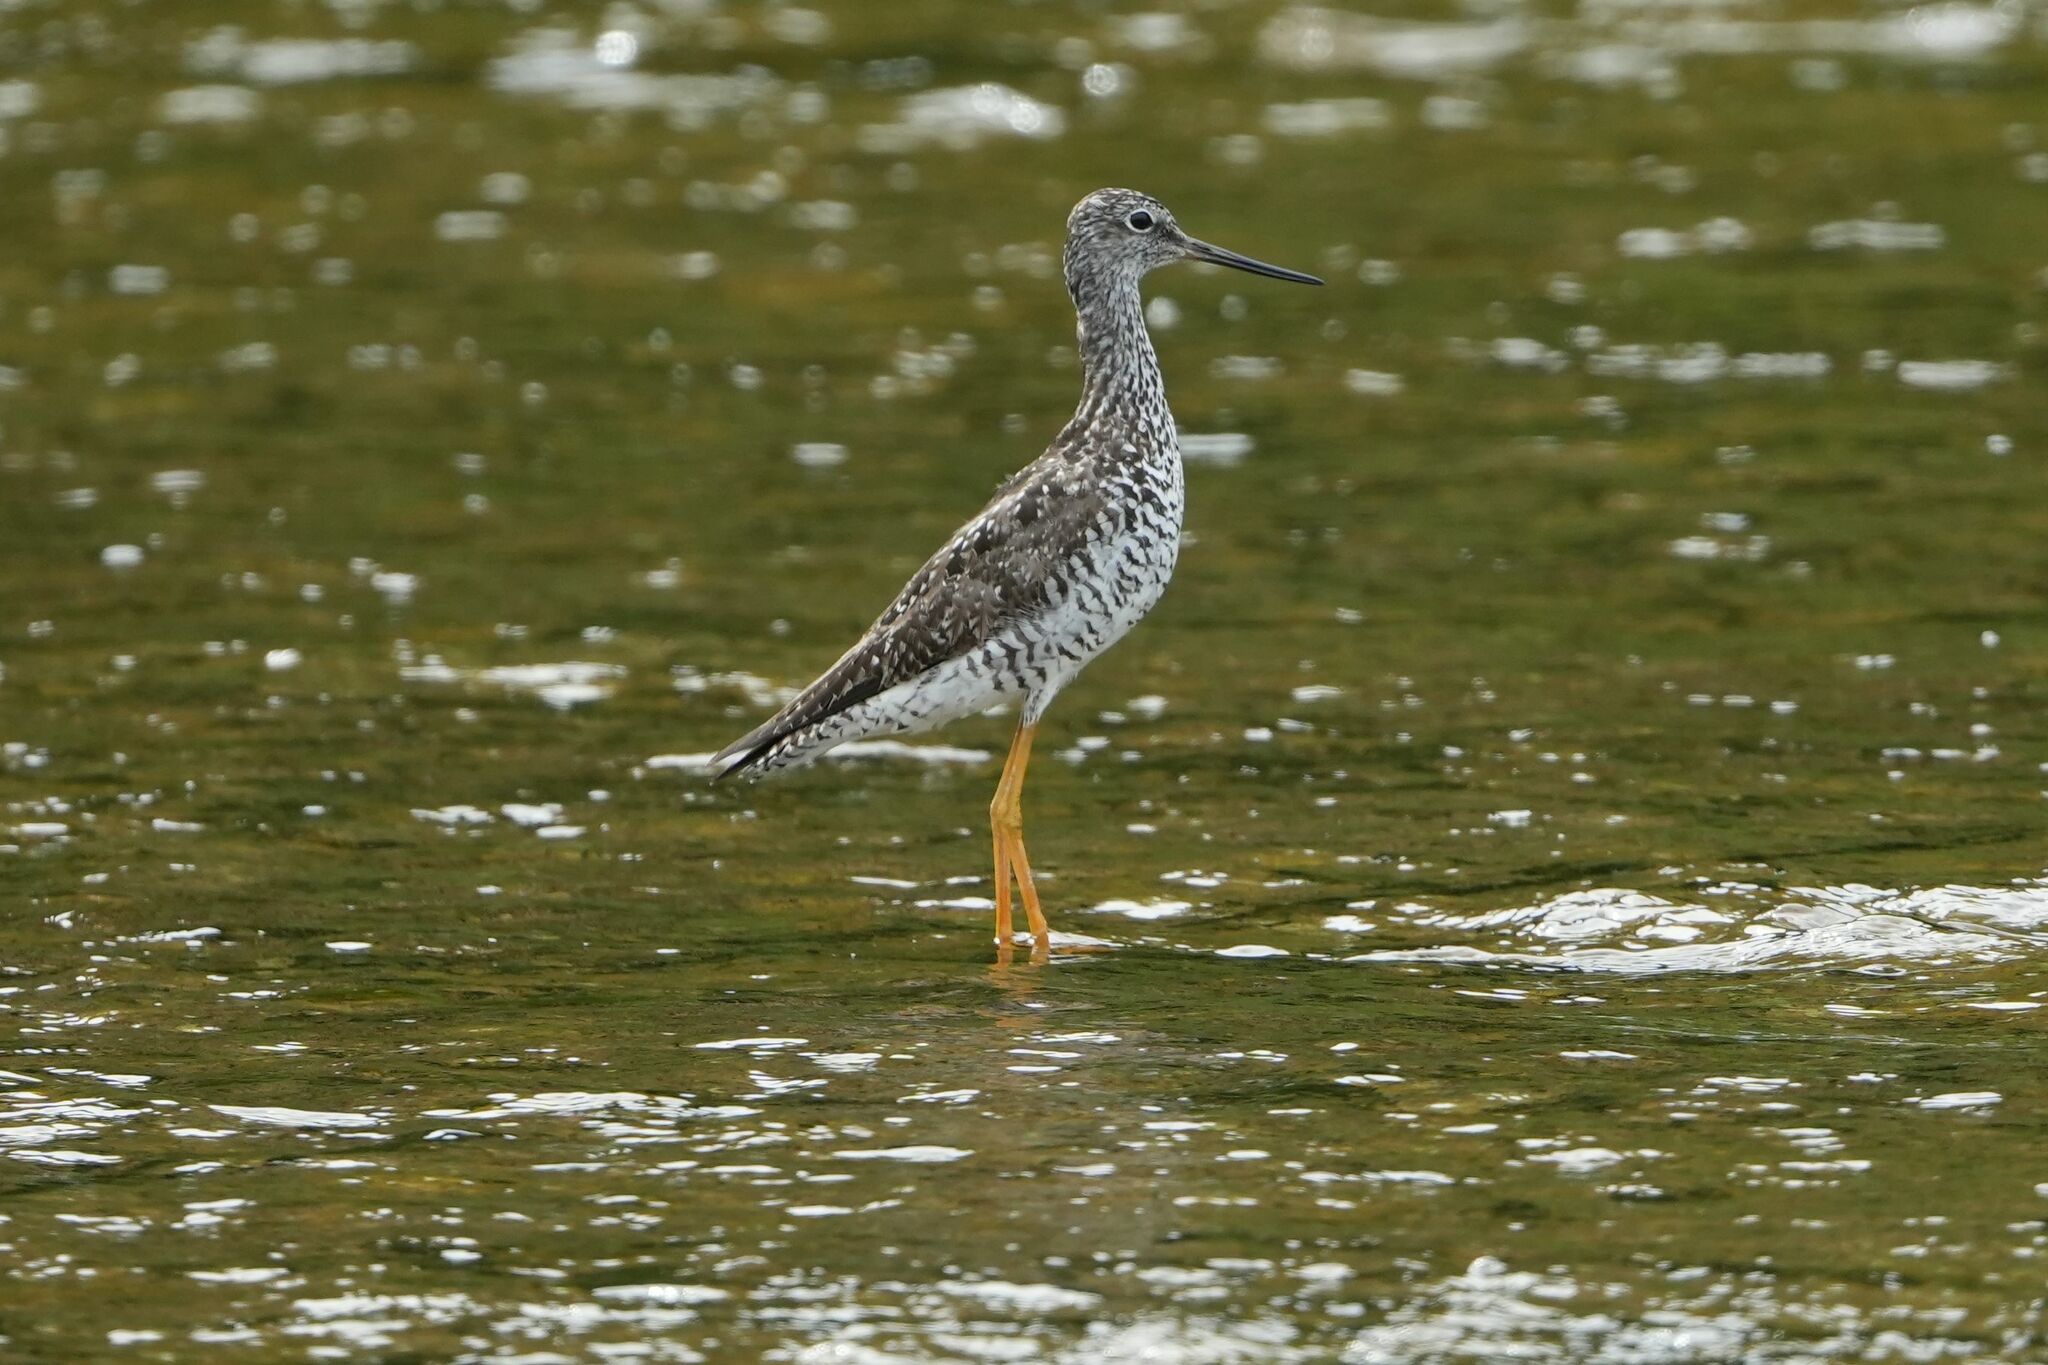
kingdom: Animalia
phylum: Chordata
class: Aves
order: Charadriiformes
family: Scolopacidae
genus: Tringa
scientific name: Tringa melanoleuca
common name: Greater yellowlegs
